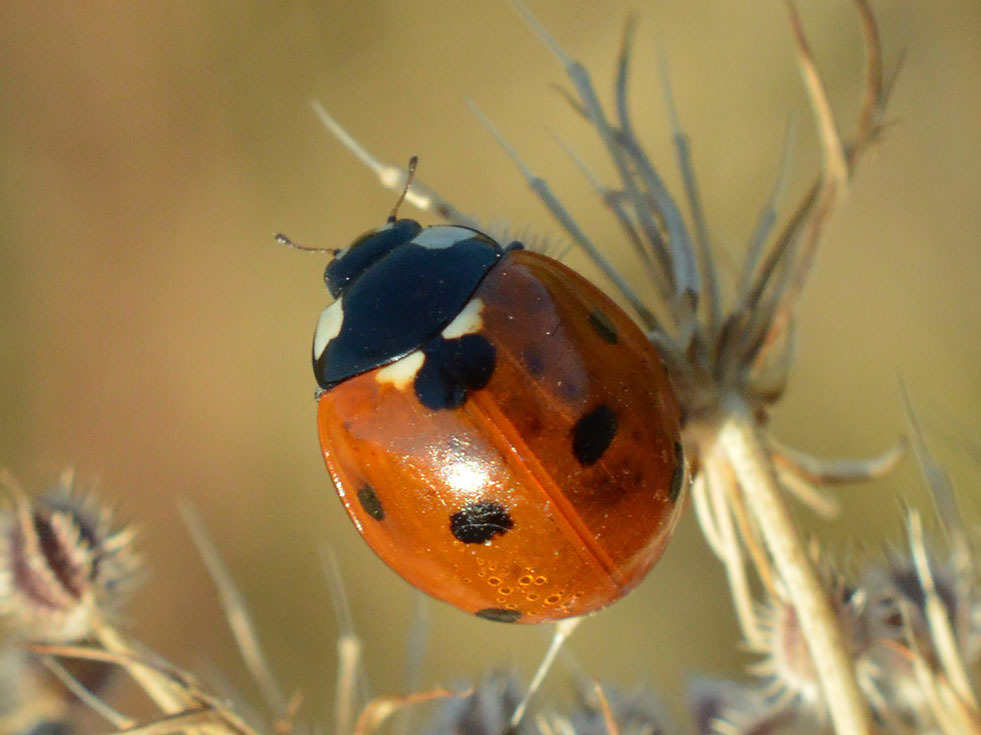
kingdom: Animalia
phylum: Arthropoda
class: Insecta
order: Coleoptera
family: Coccinellidae
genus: Coccinella
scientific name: Coccinella septempunctata
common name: Sevenspotted lady beetle
